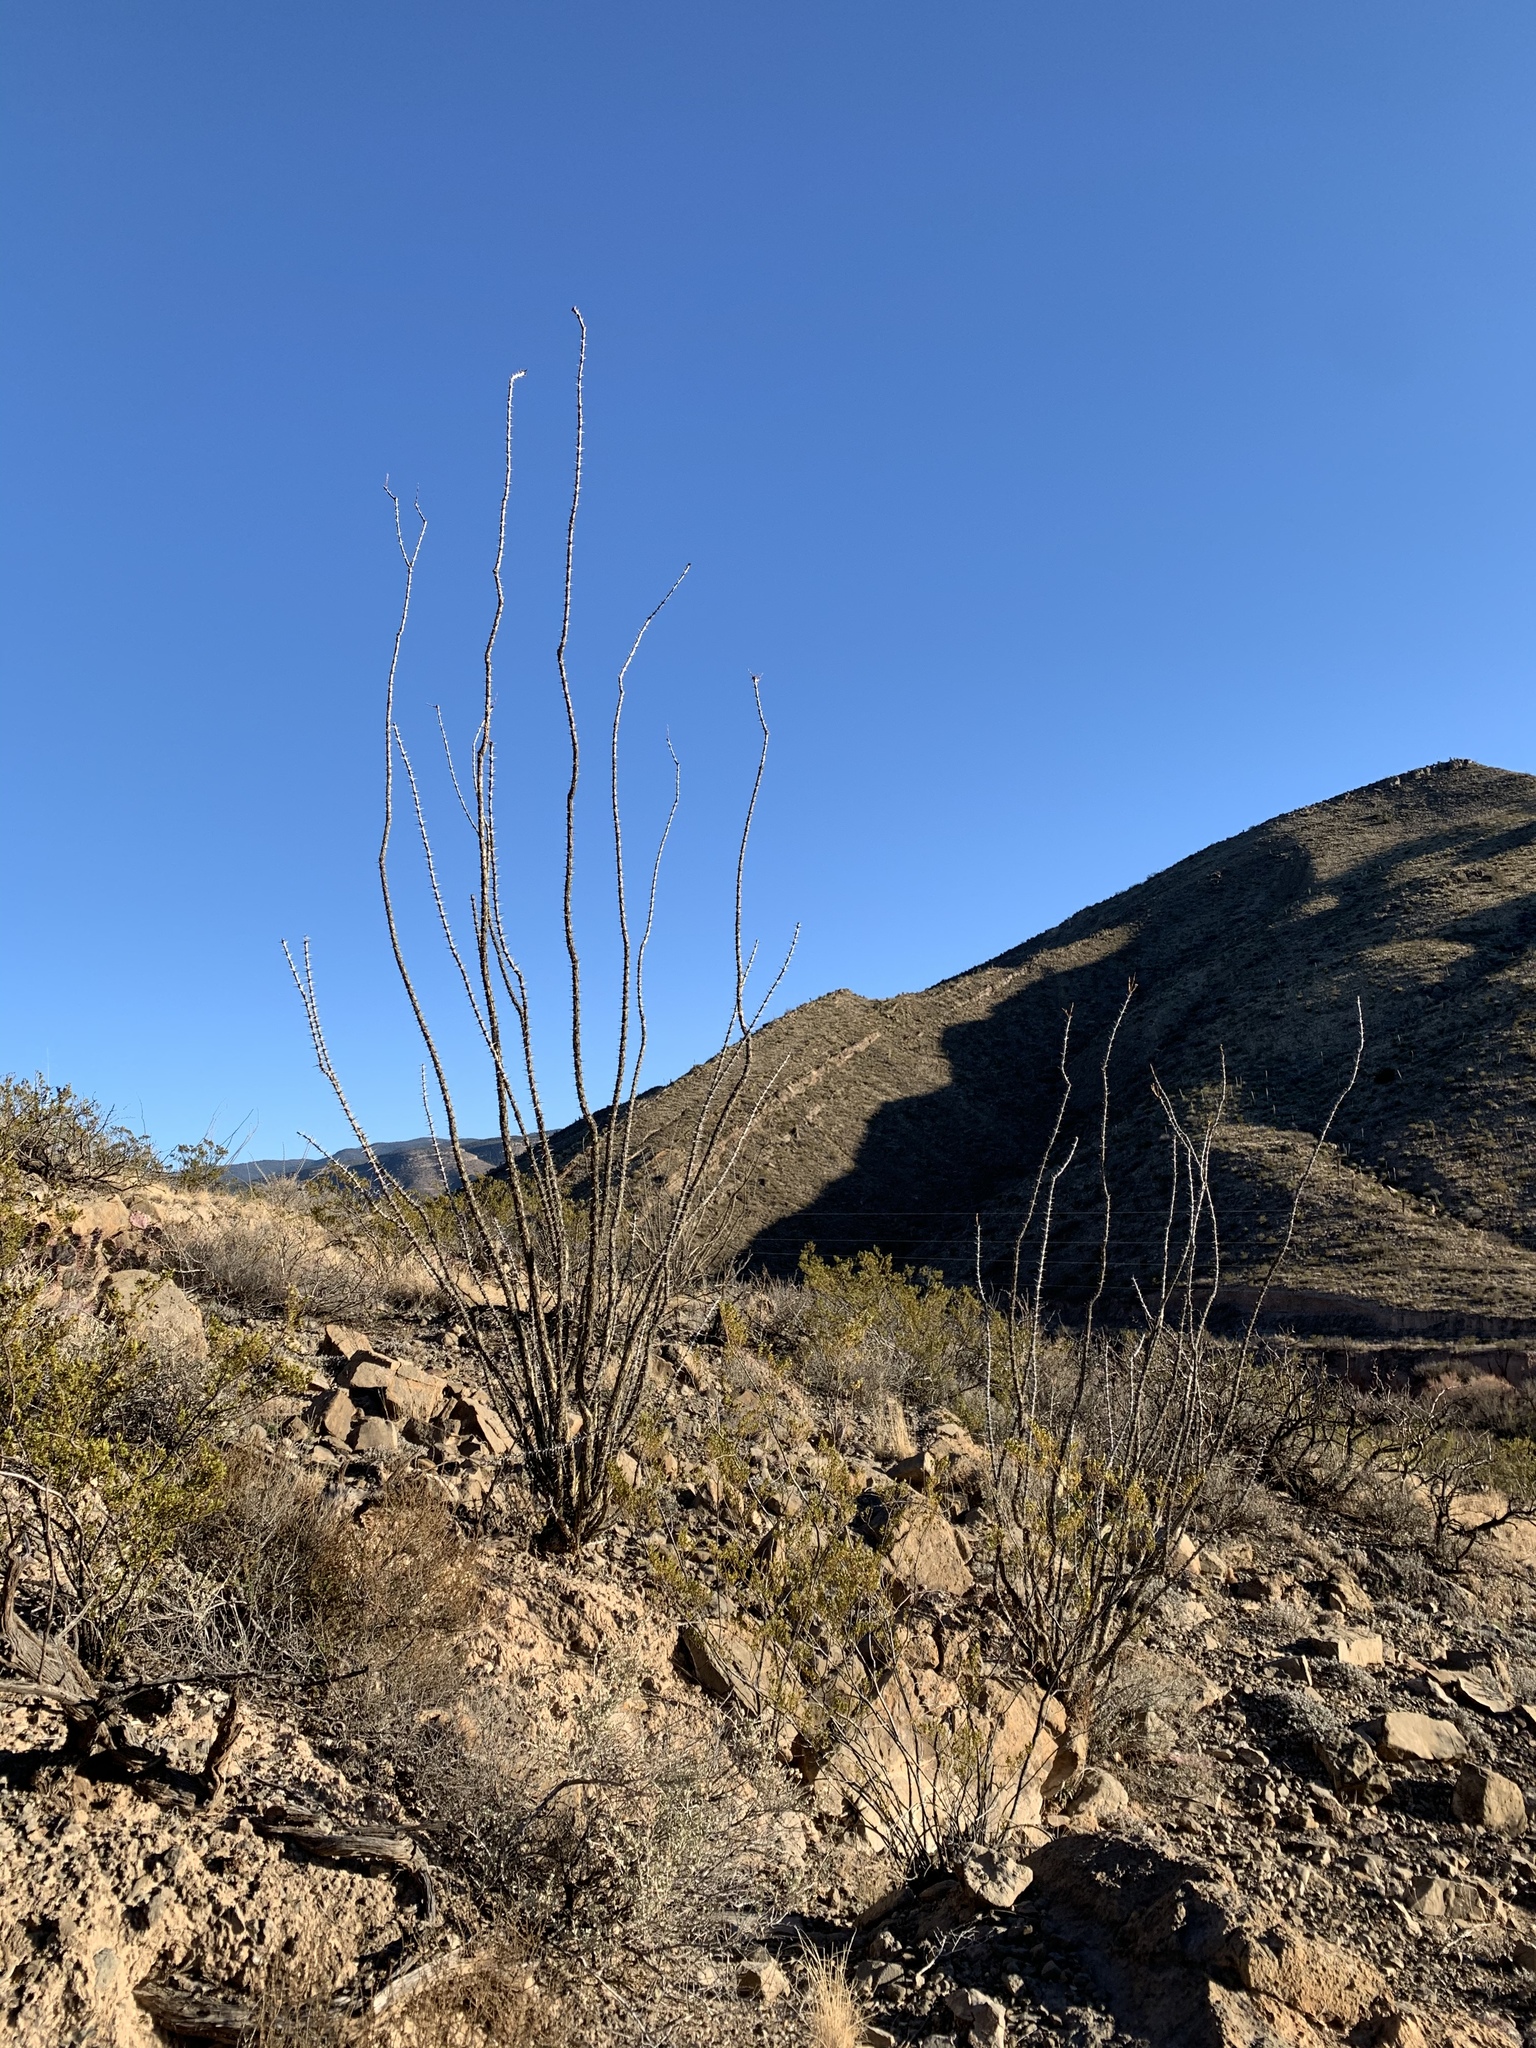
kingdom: Plantae
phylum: Tracheophyta
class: Magnoliopsida
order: Ericales
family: Fouquieriaceae
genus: Fouquieria
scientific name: Fouquieria splendens
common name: Vine-cactus
